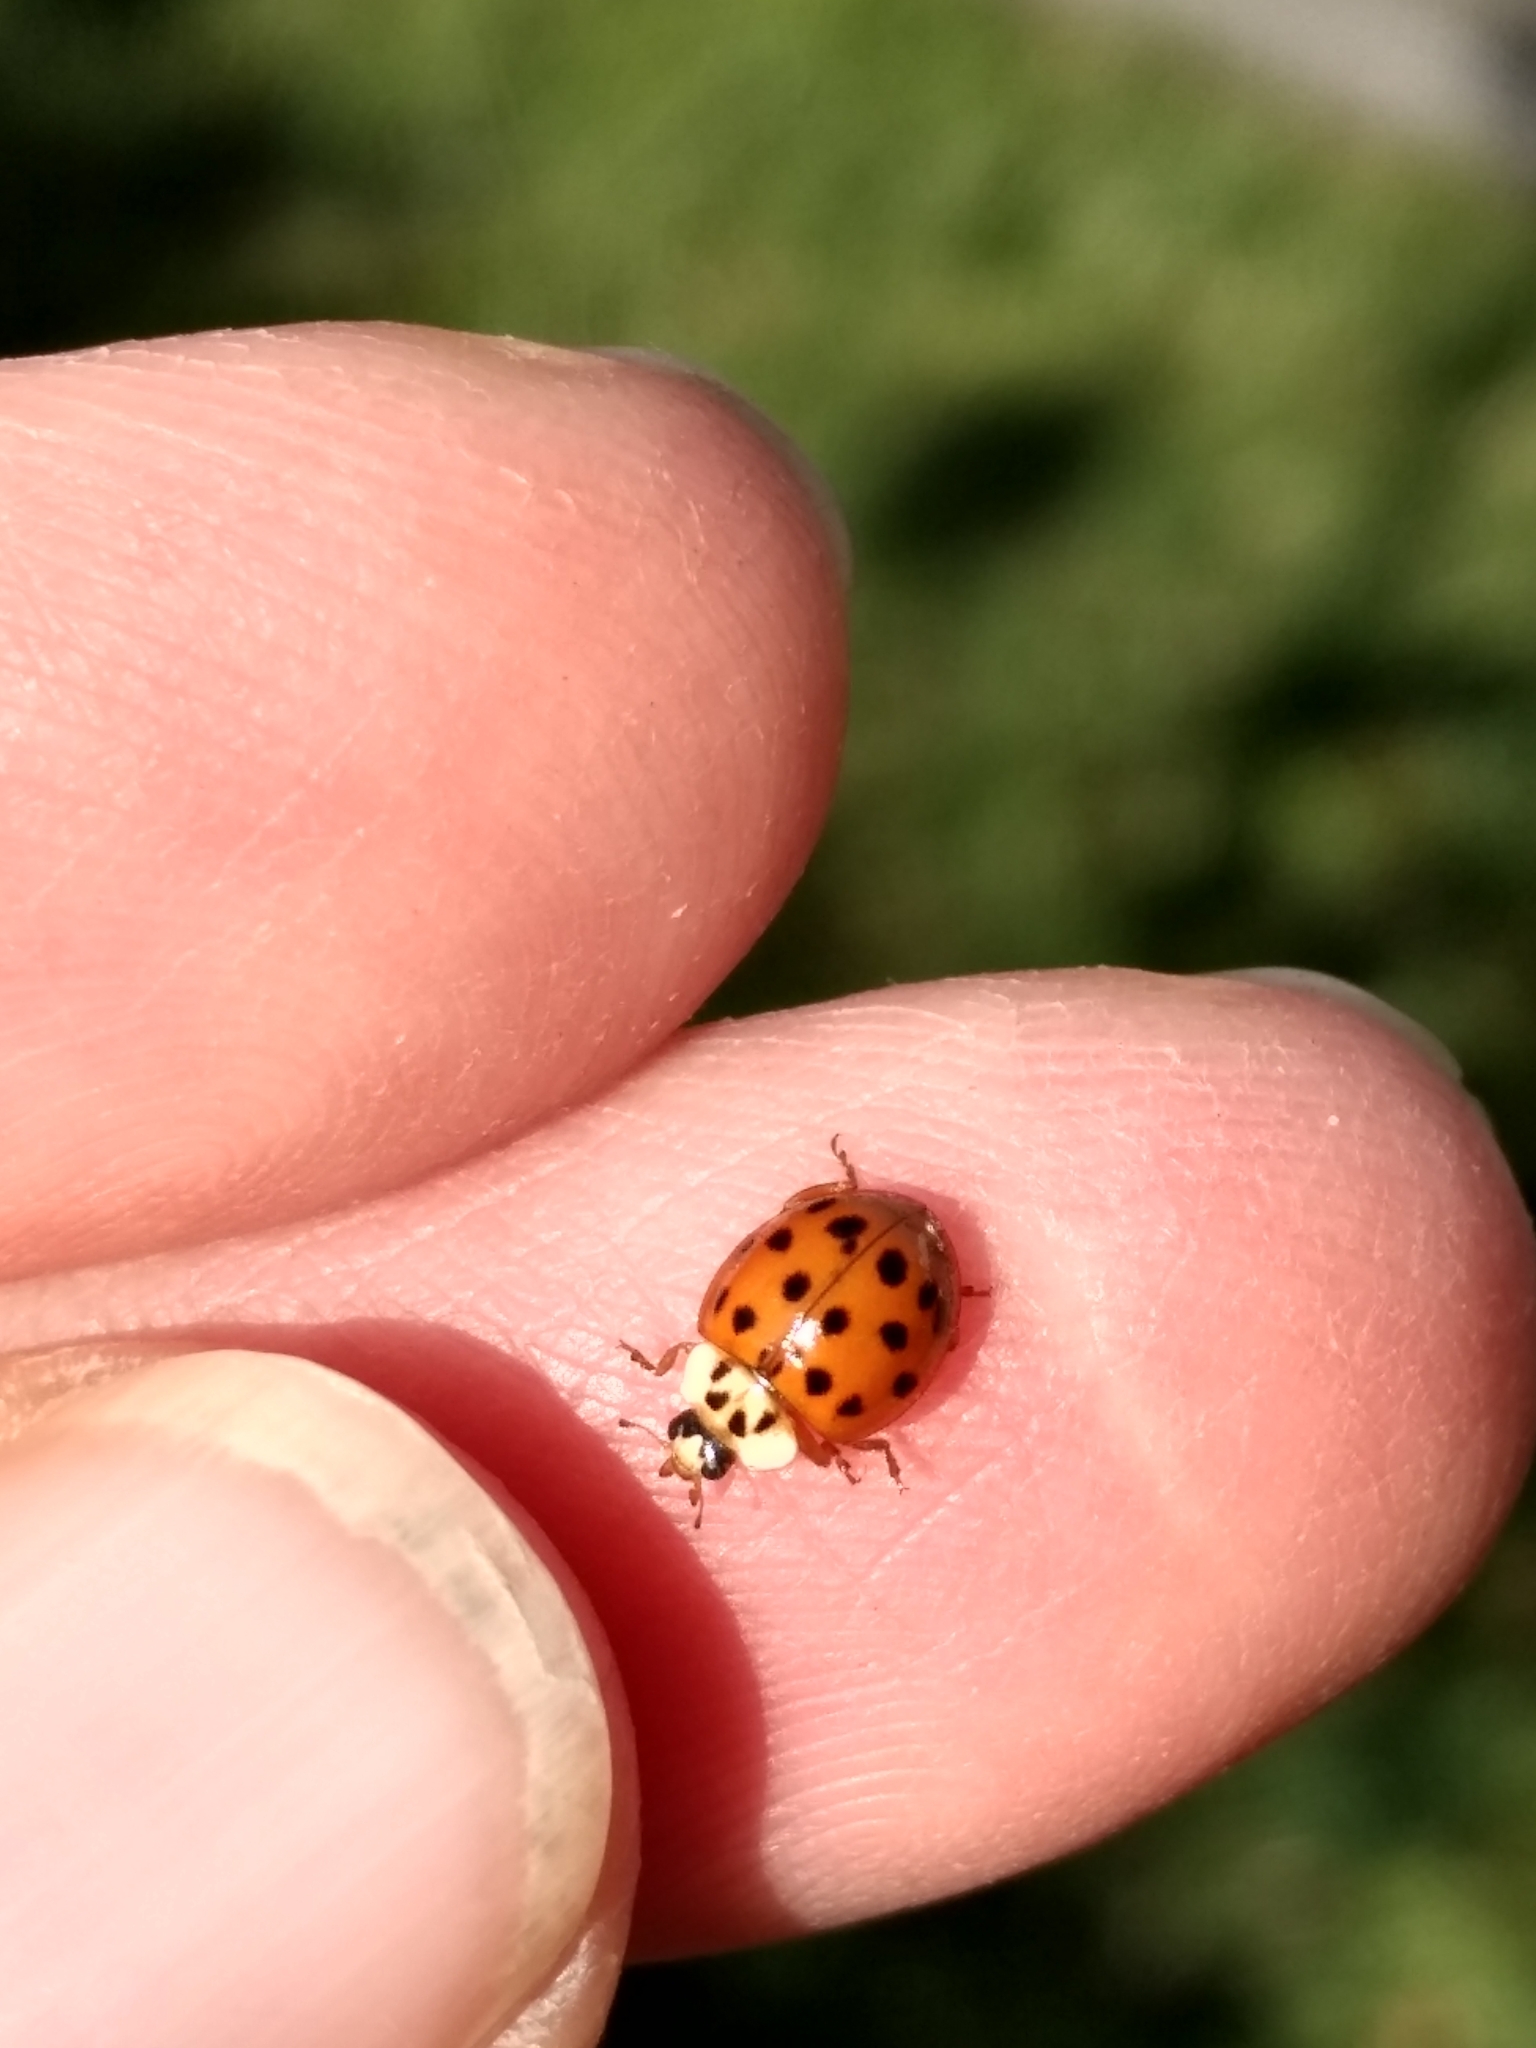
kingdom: Animalia
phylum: Arthropoda
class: Insecta
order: Coleoptera
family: Coccinellidae
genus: Harmonia
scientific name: Harmonia axyridis
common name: Harlequin ladybird
